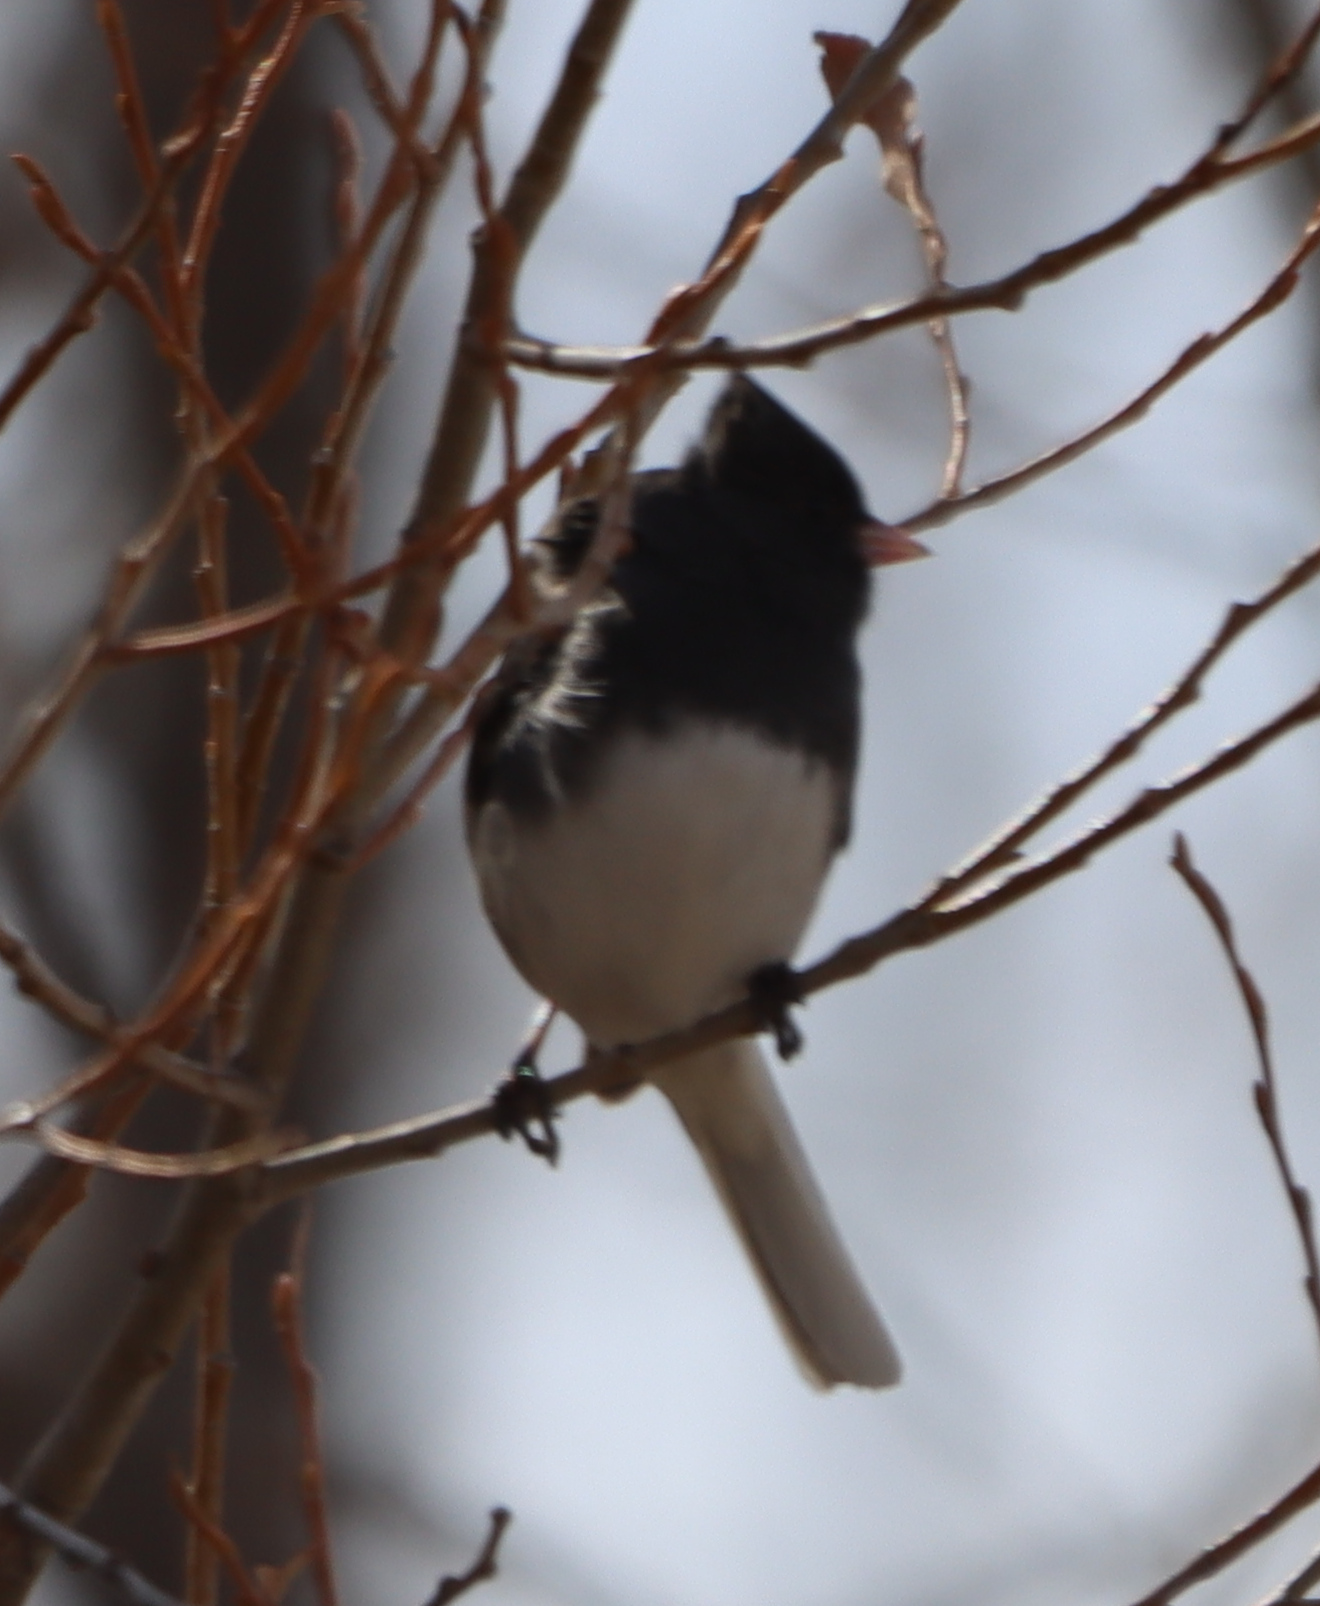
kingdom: Animalia
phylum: Chordata
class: Aves
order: Passeriformes
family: Passerellidae
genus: Junco
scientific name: Junco hyemalis
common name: Dark-eyed junco
